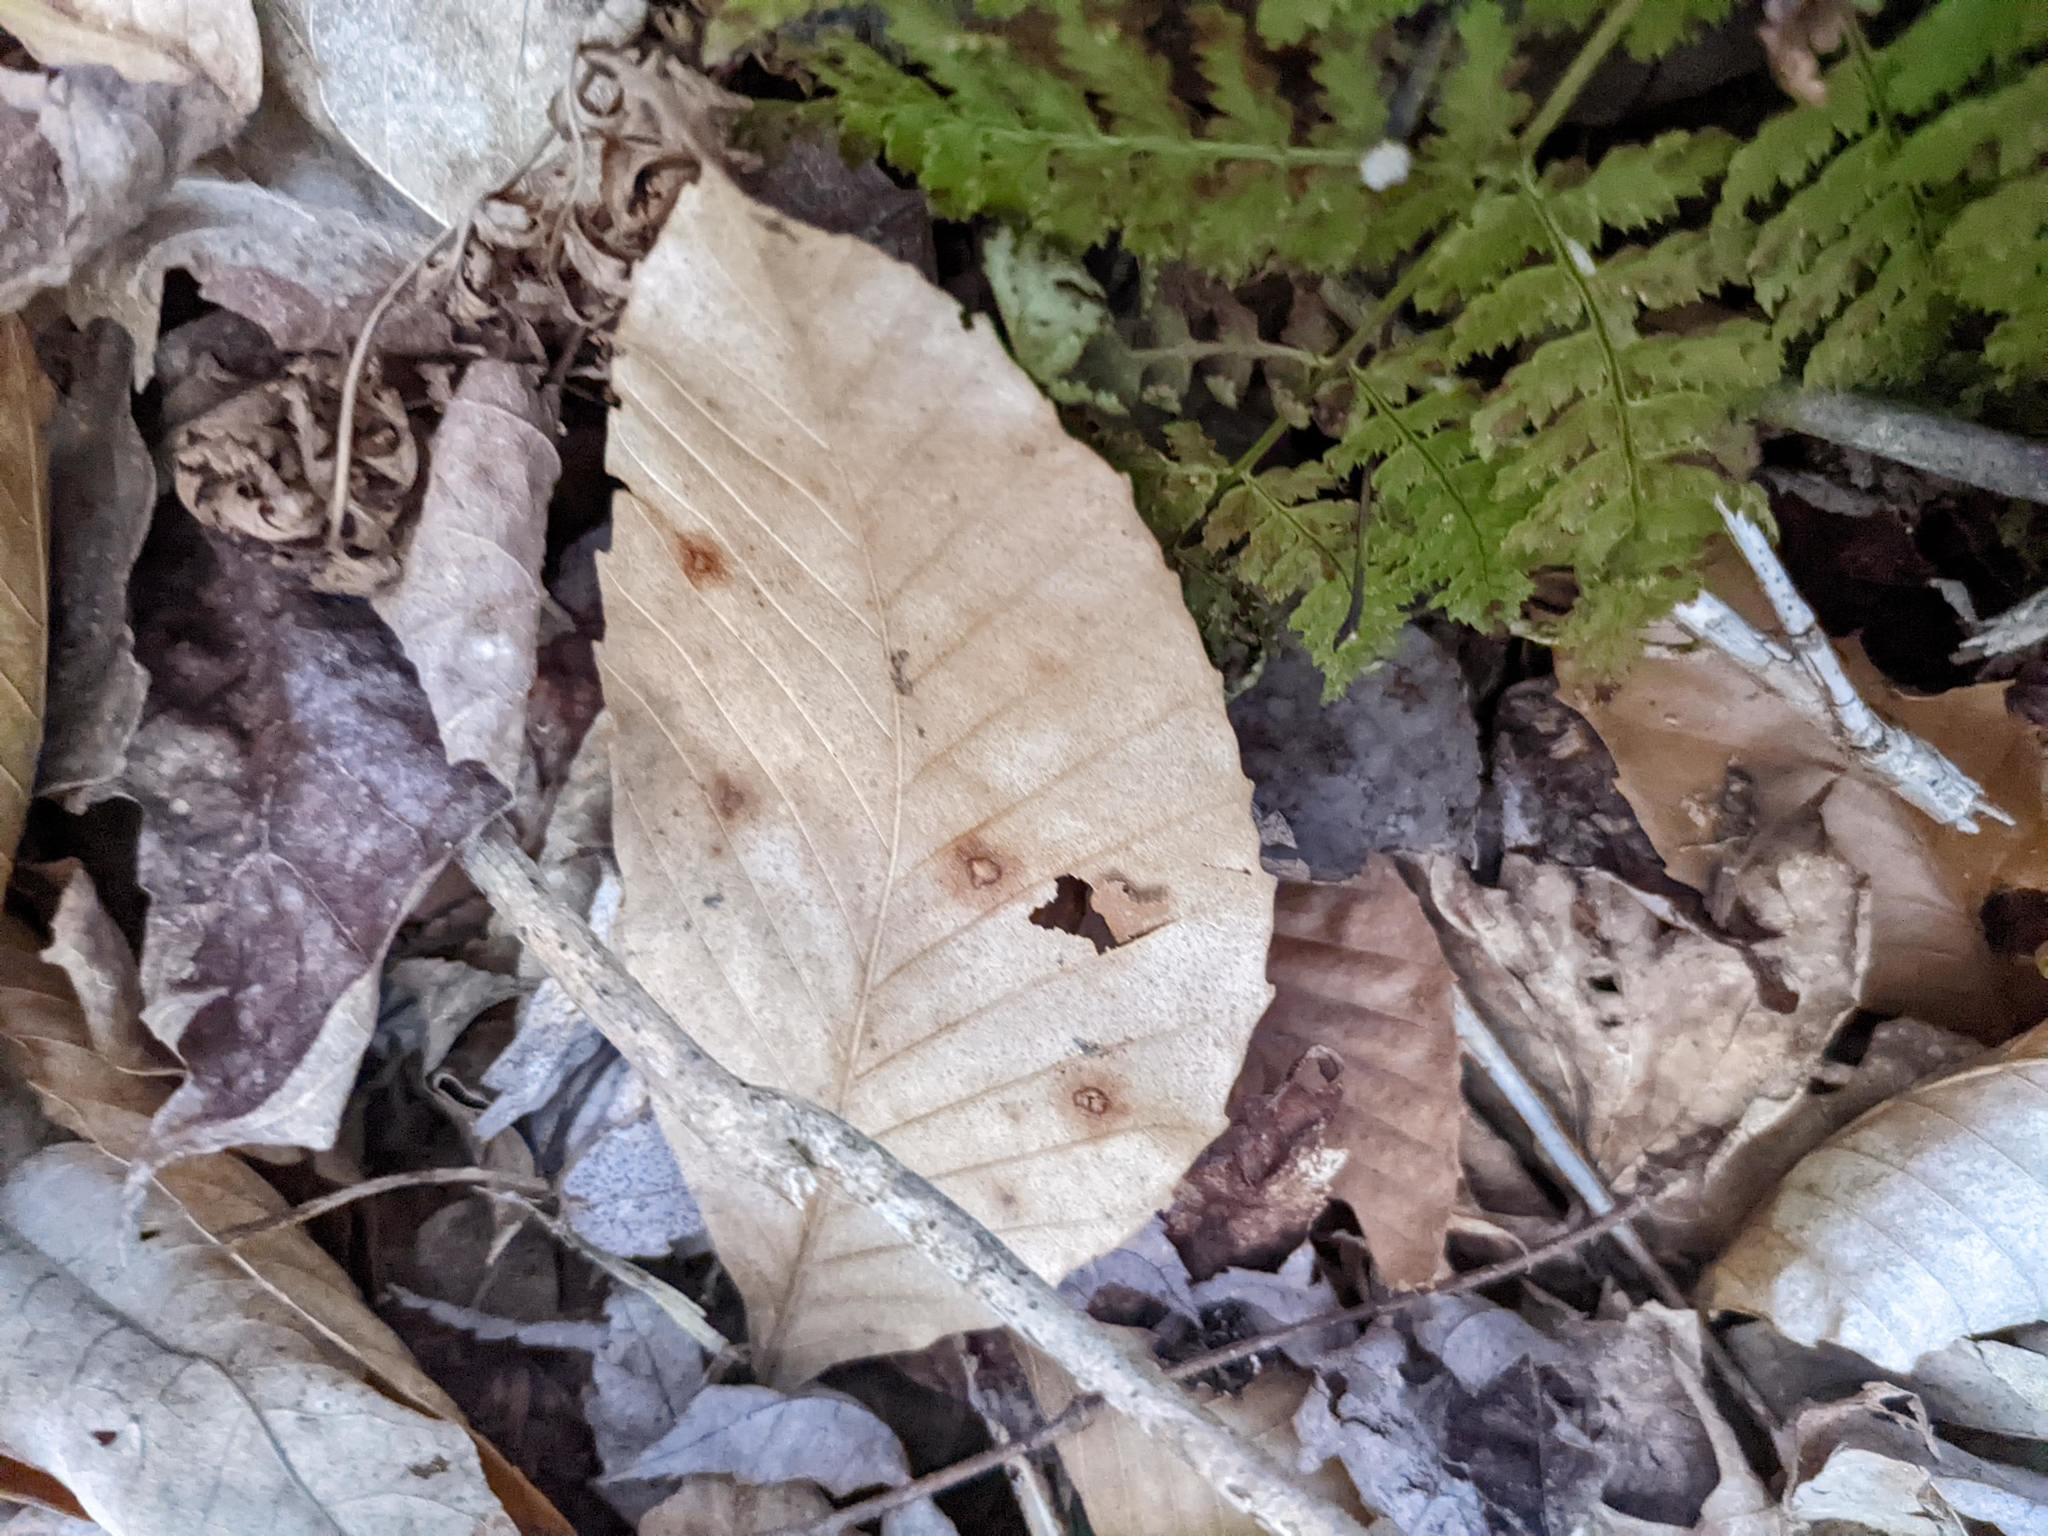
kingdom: Plantae
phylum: Tracheophyta
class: Magnoliopsida
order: Fagales
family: Fagaceae
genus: Fagus
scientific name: Fagus grandifolia
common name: American beech
